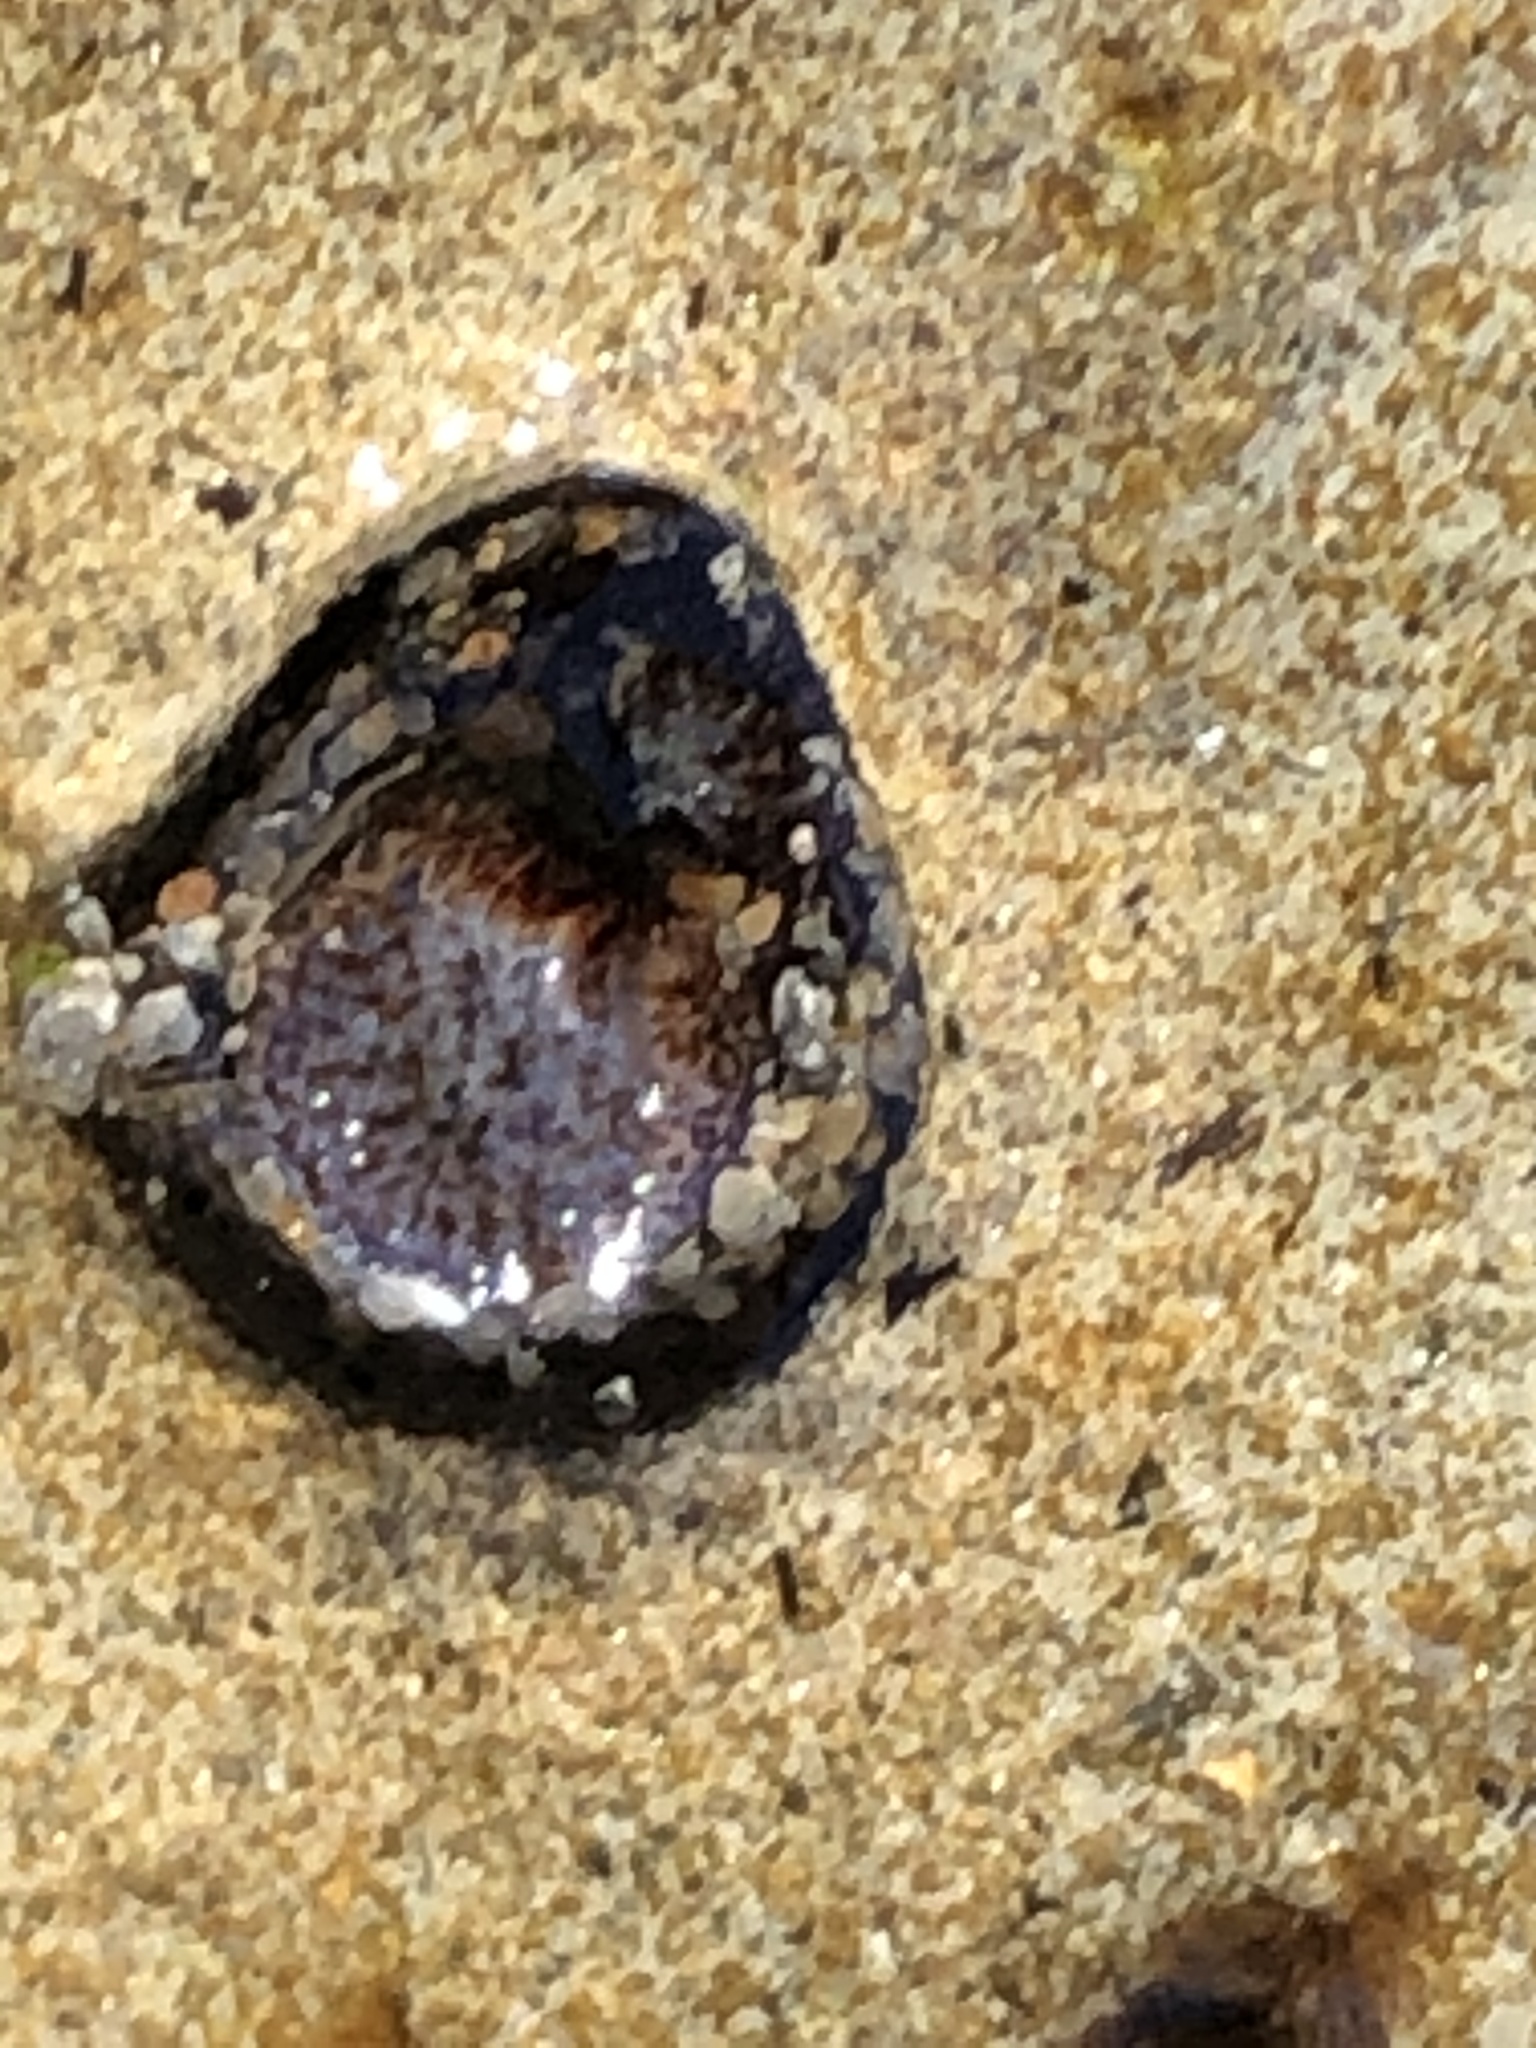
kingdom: Animalia
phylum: Mollusca
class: Bivalvia
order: Myida
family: Pholadidae
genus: Parapholas
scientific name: Parapholas californica
